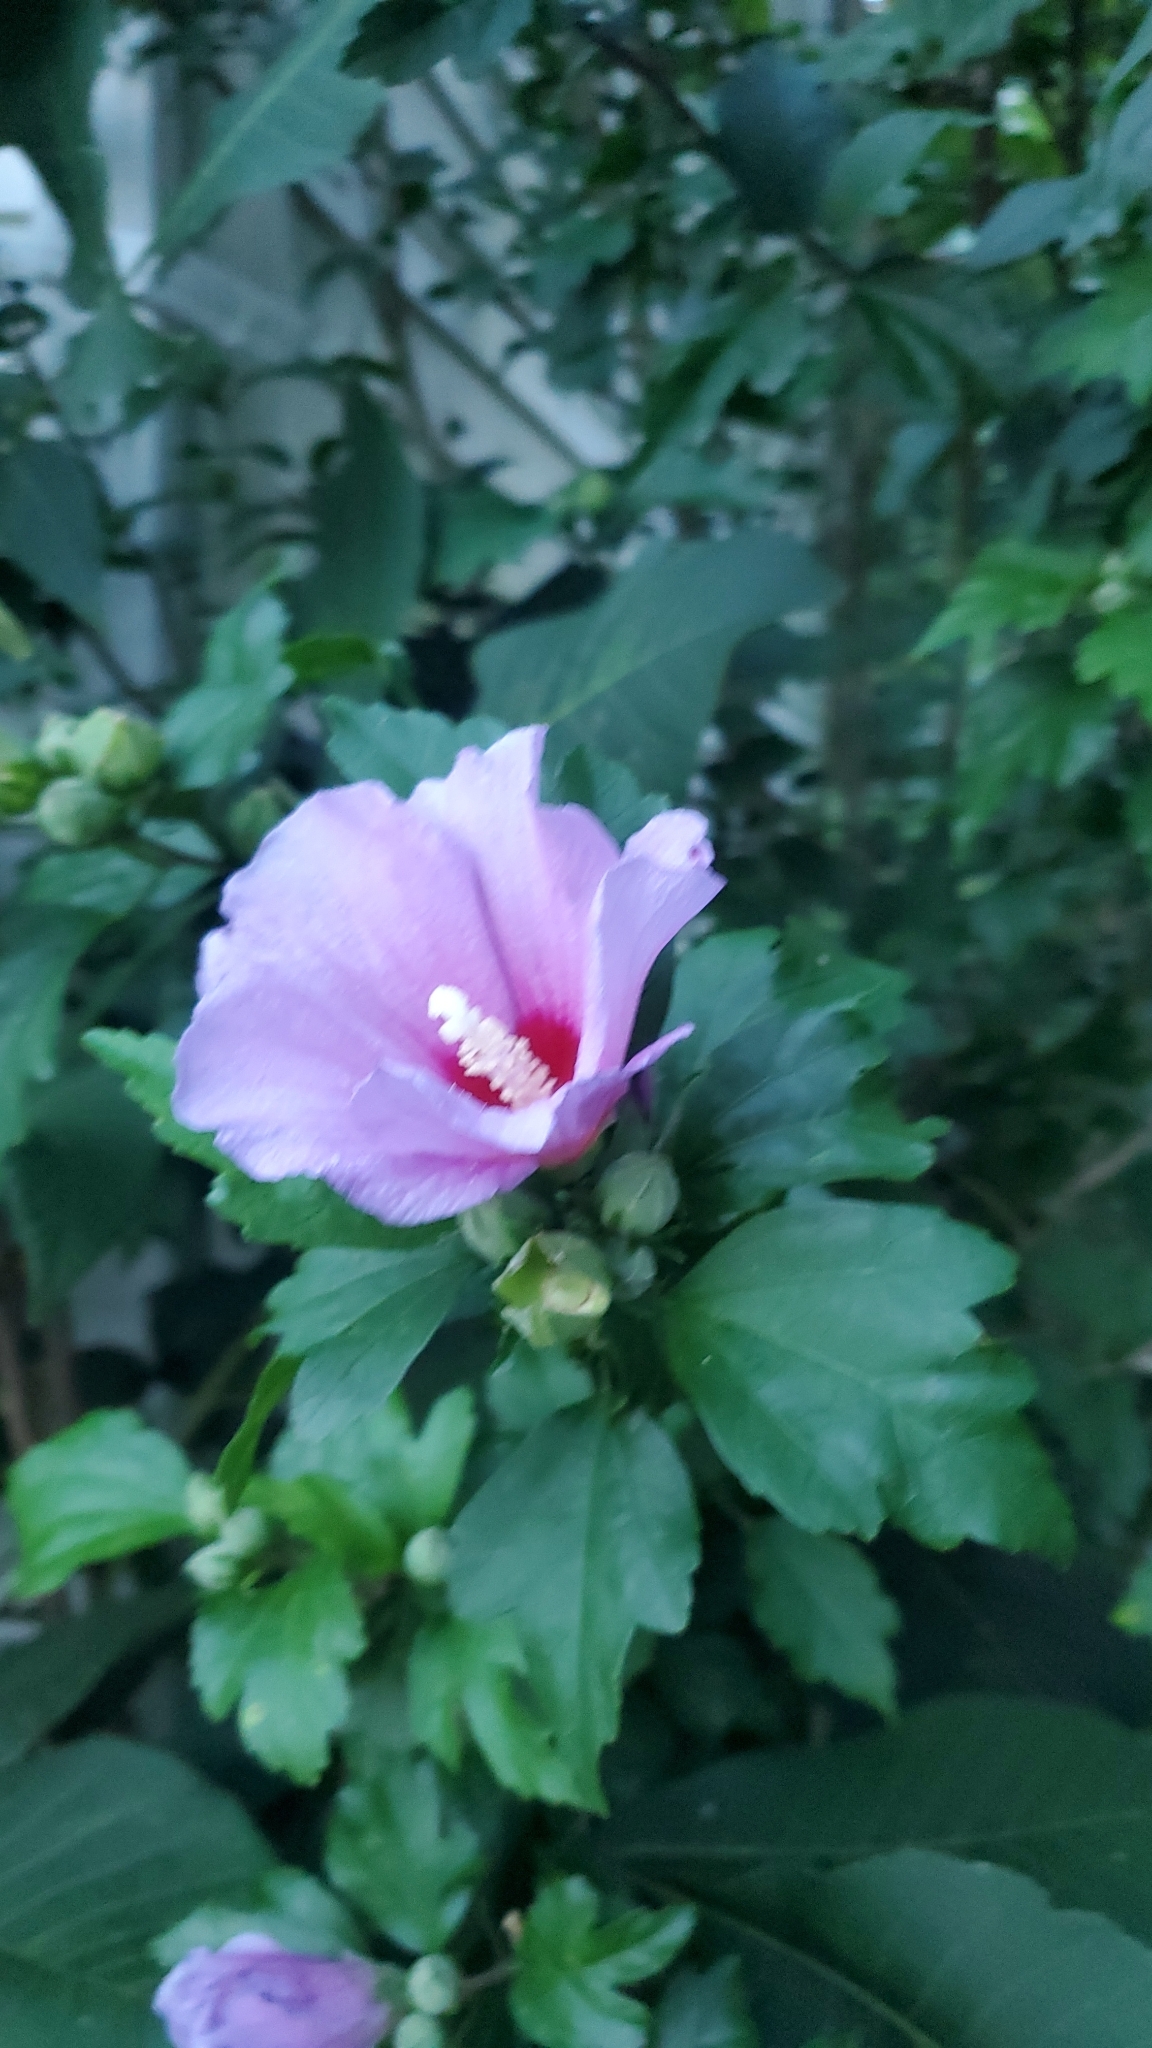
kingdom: Plantae
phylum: Tracheophyta
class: Magnoliopsida
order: Malvales
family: Malvaceae
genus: Hibiscus
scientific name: Hibiscus syriacus
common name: Syrian ketmia
